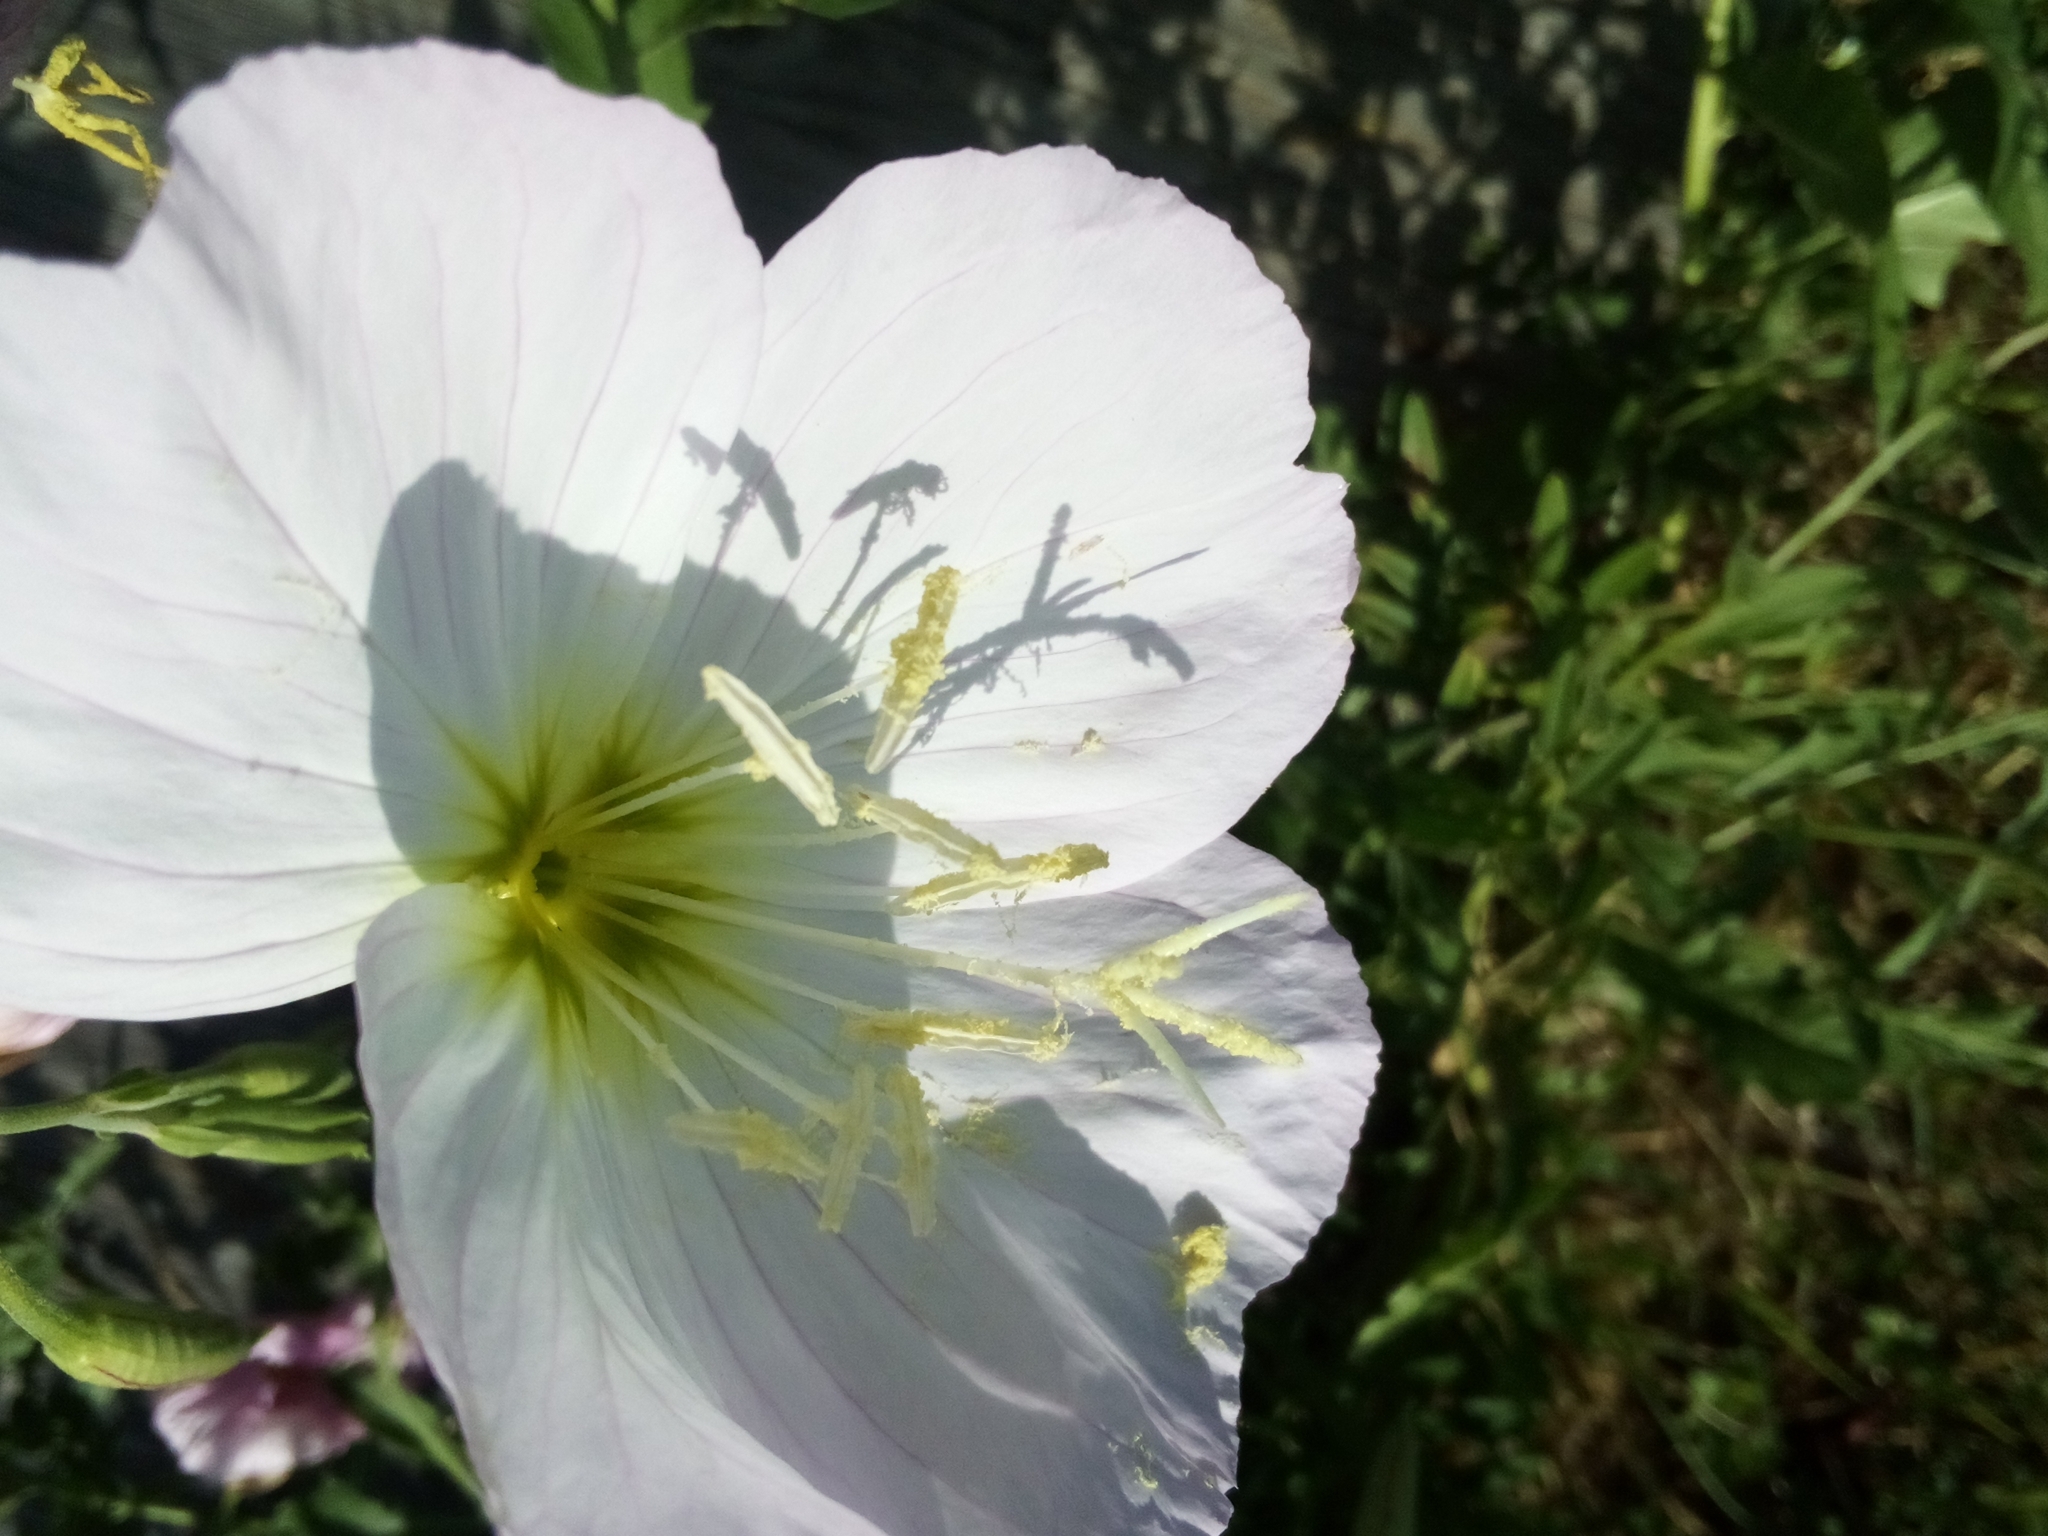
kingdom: Plantae
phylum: Tracheophyta
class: Magnoliopsida
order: Myrtales
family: Onagraceae
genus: Oenothera
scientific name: Oenothera speciosa
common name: White evening-primrose
